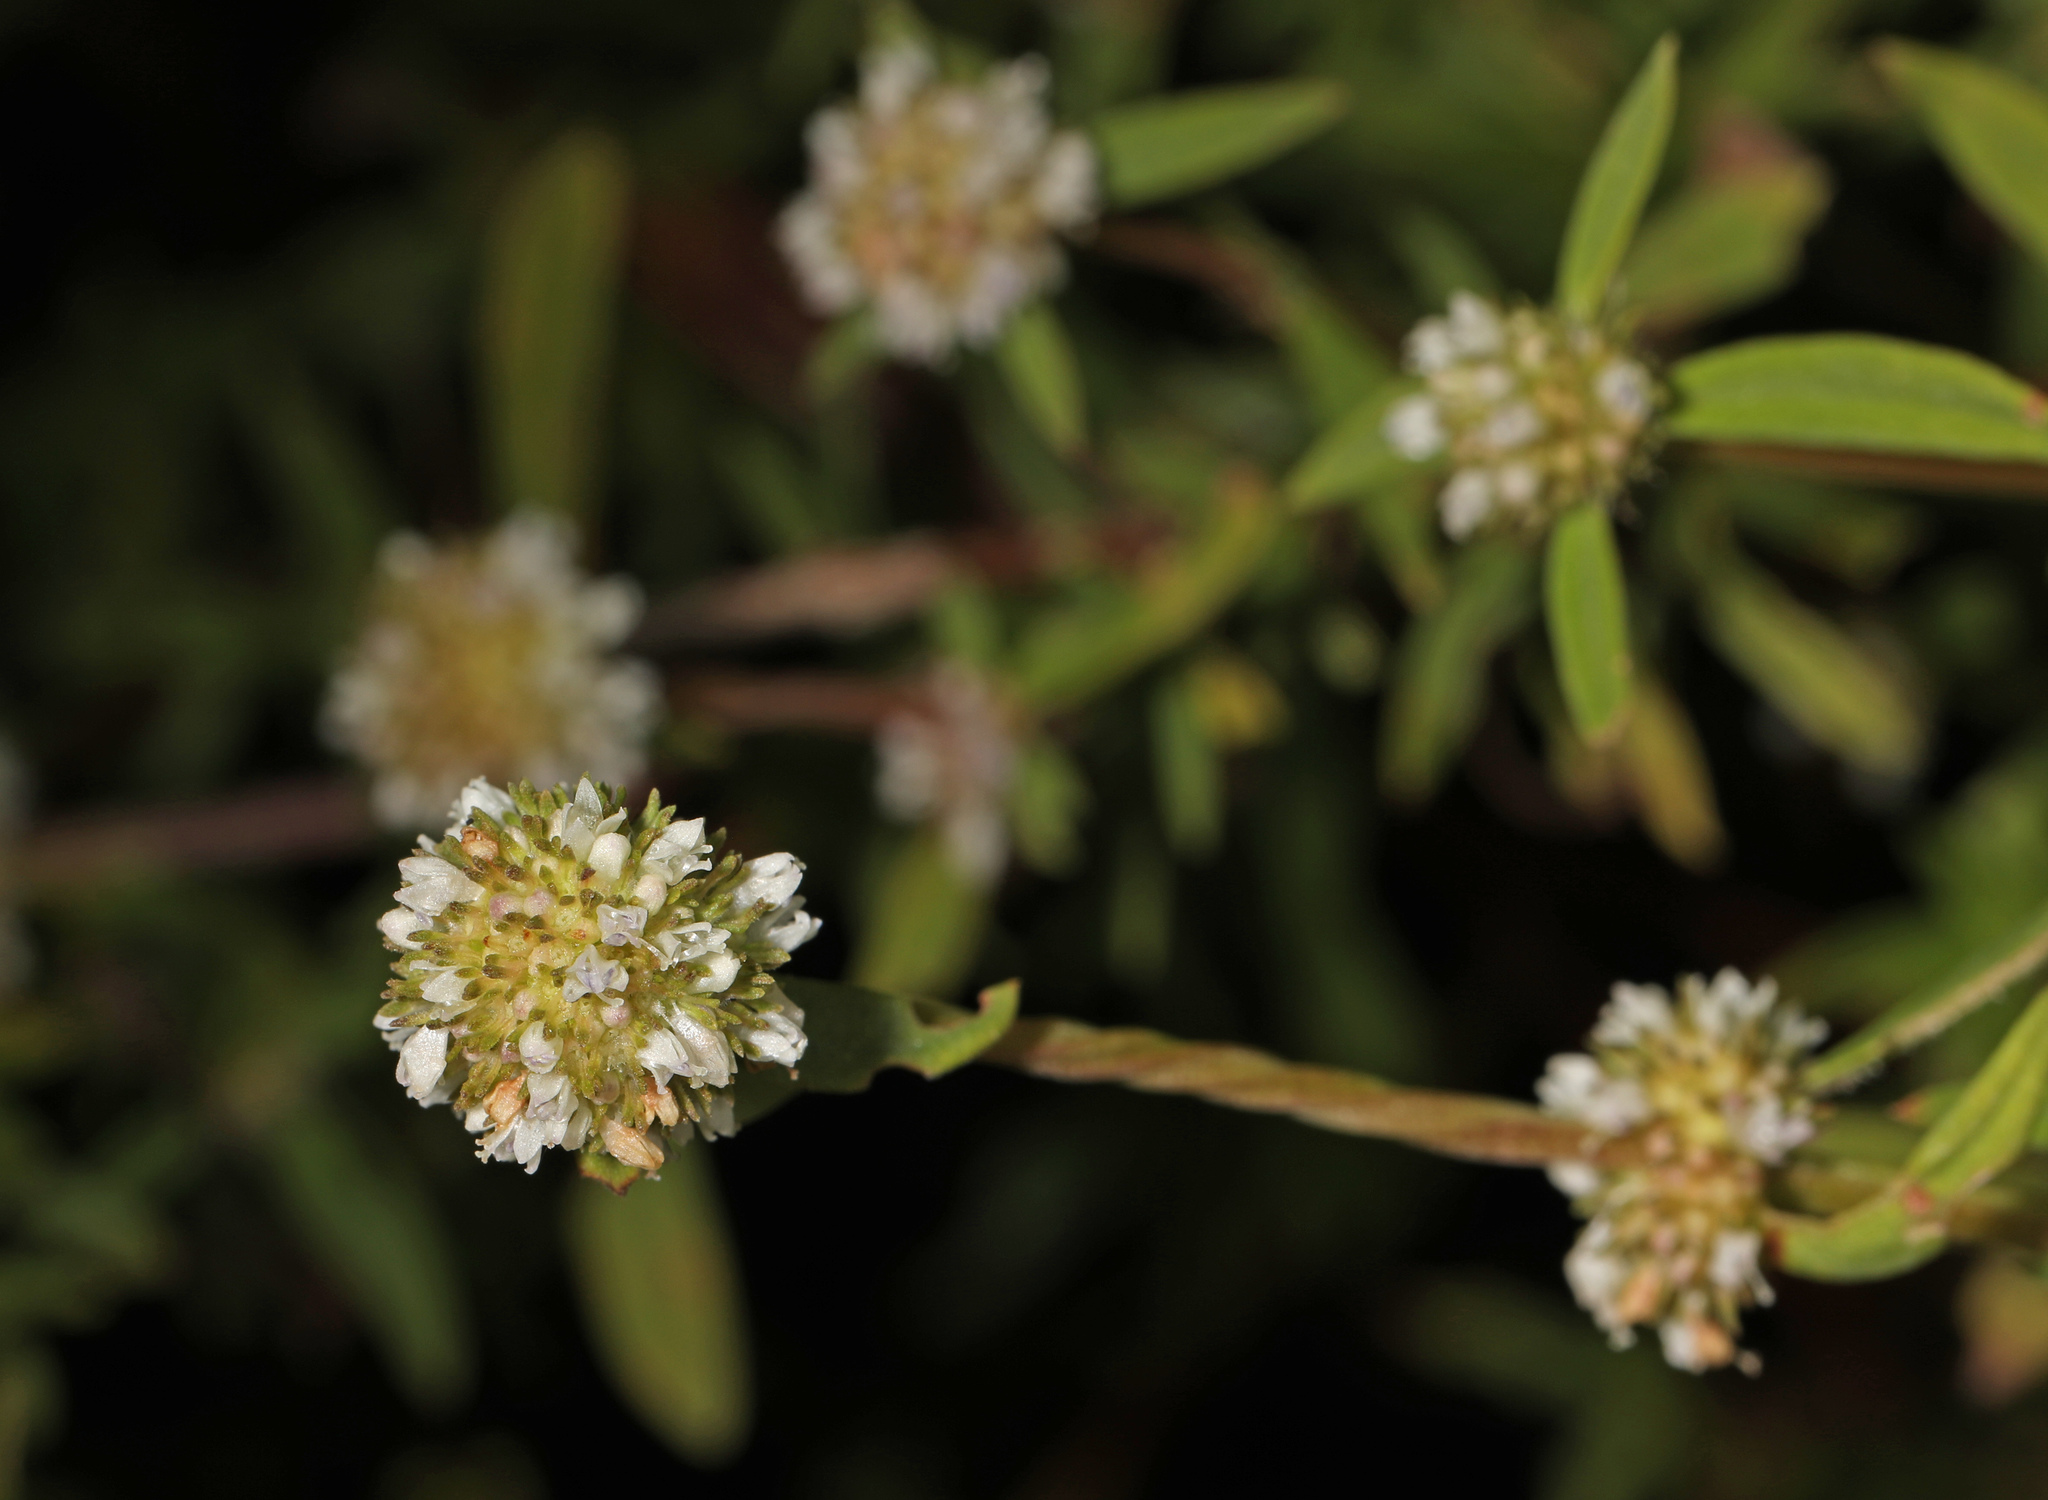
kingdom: Plantae
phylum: Tracheophyta
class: Magnoliopsida
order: Gentianales
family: Rubiaceae
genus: Spermacoce
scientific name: Spermacoce verticillata
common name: Shrubby false buttonweed
